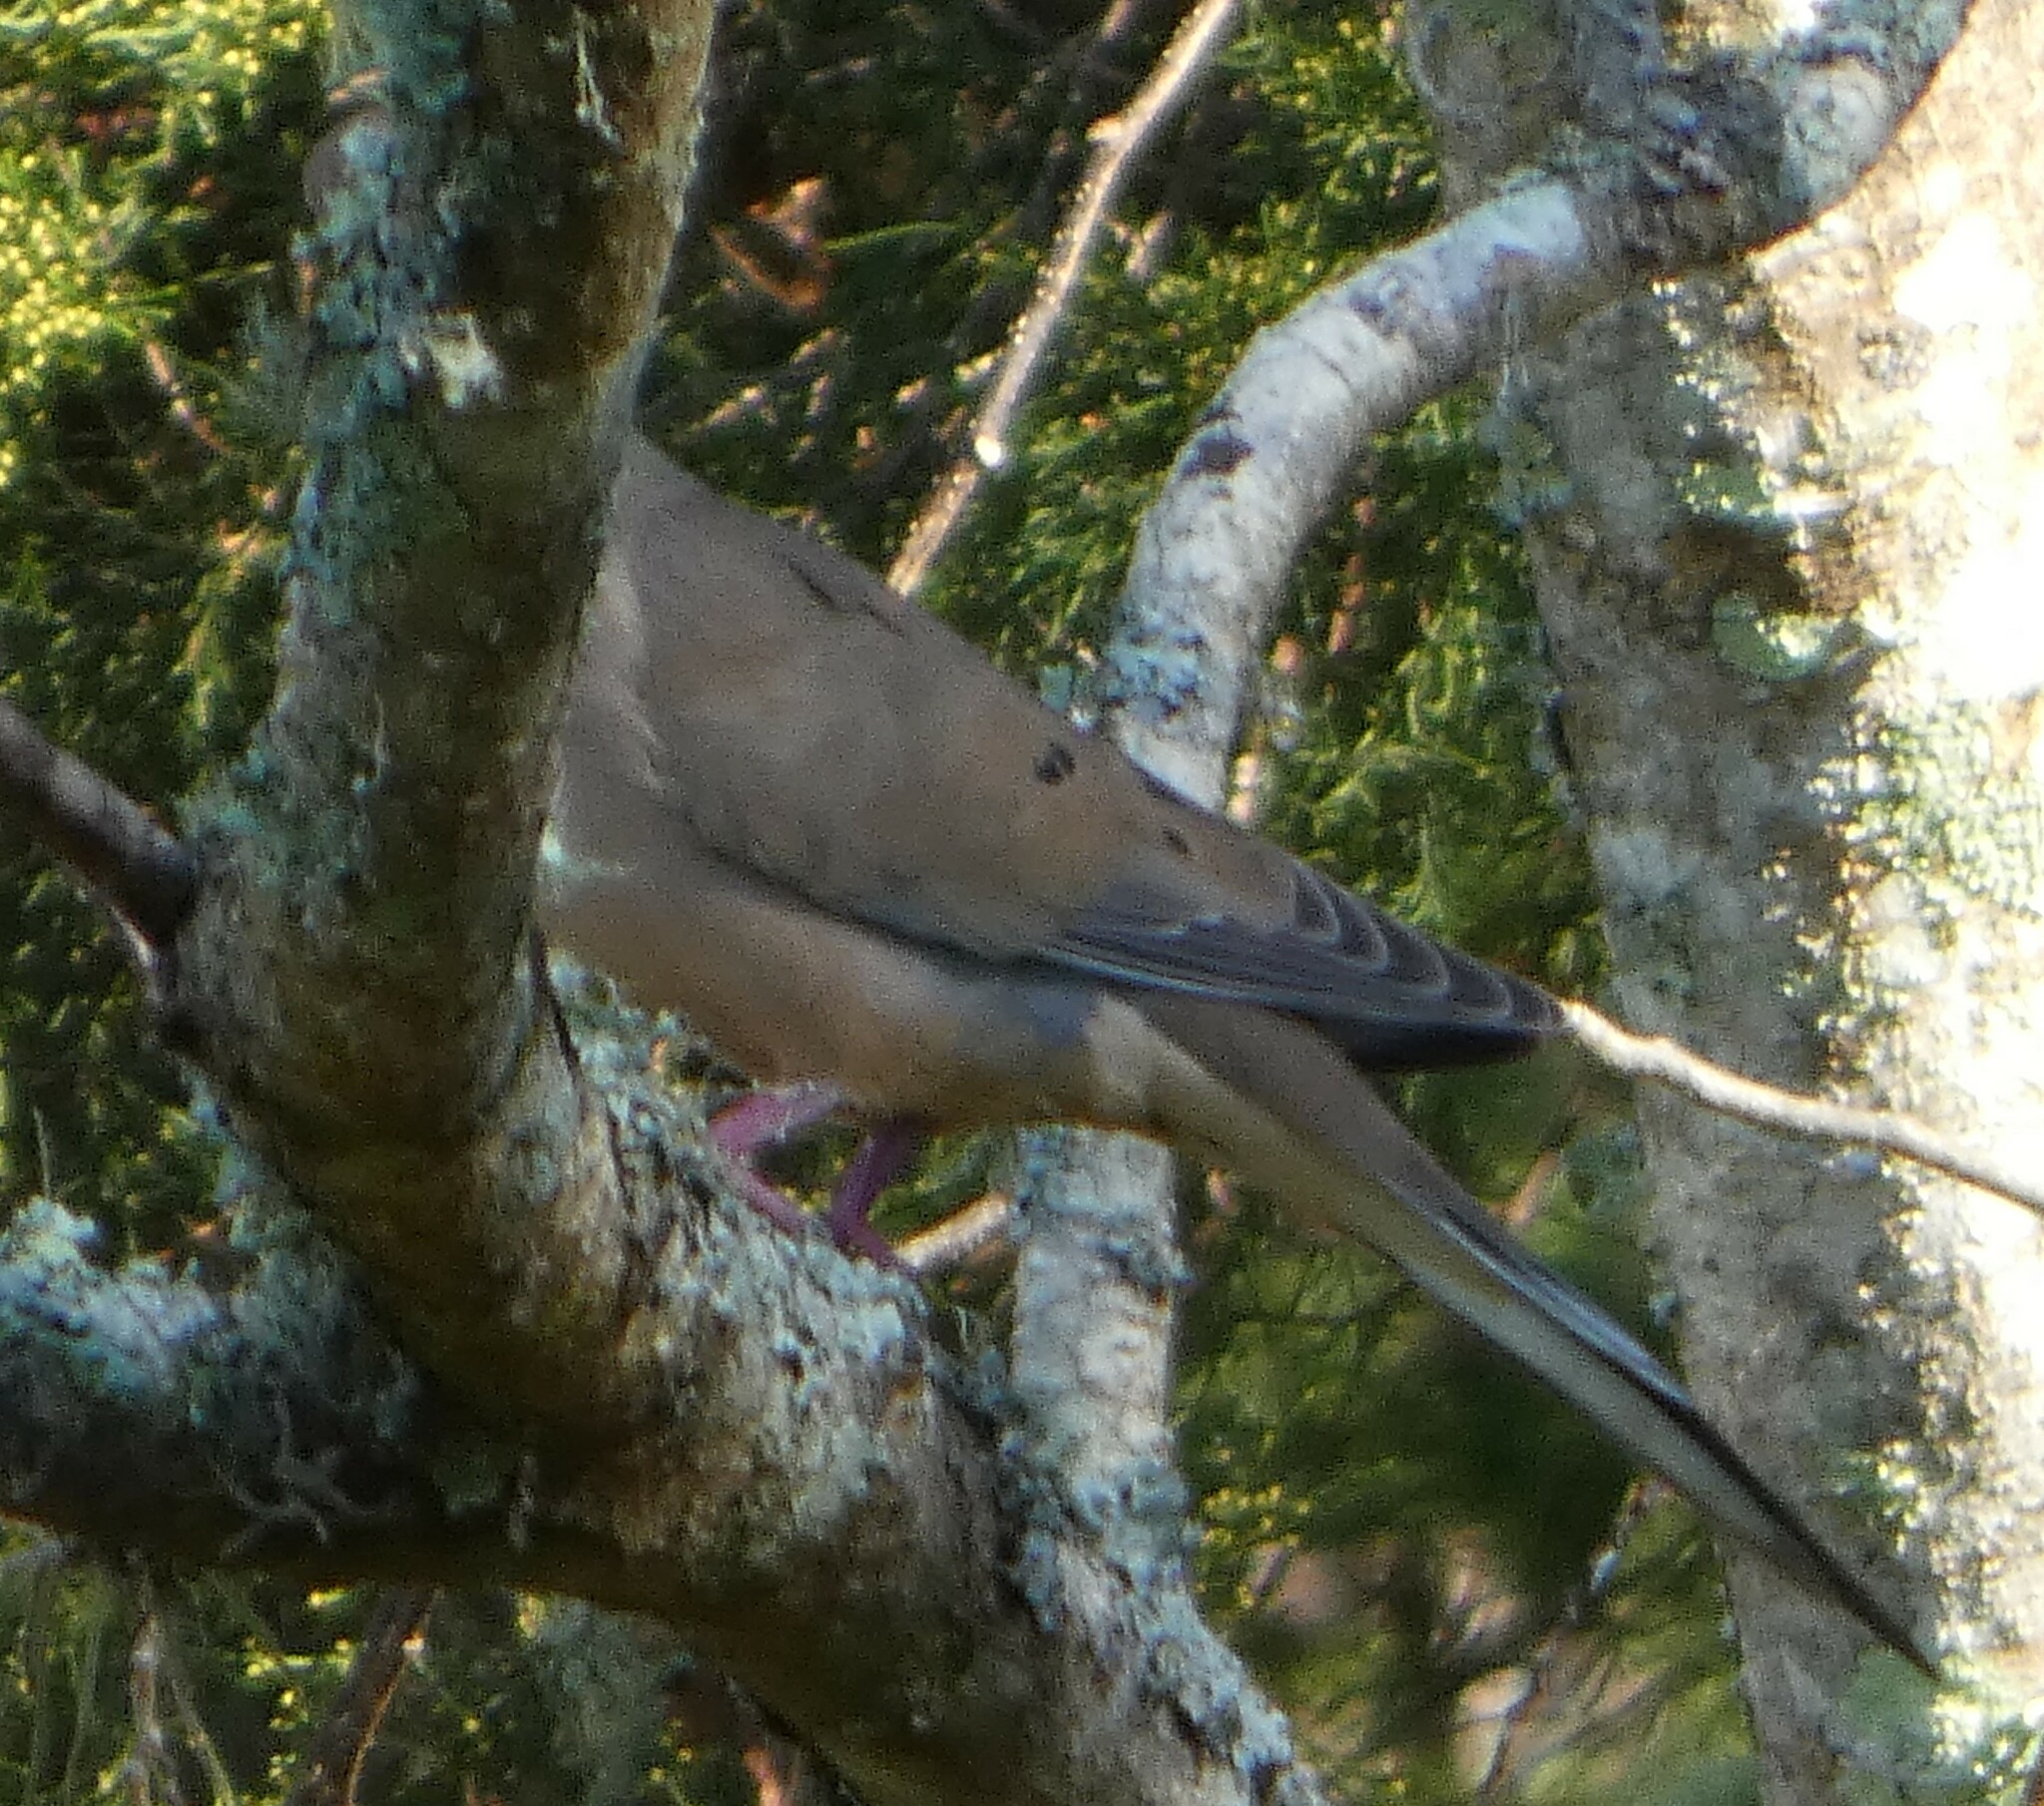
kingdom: Animalia
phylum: Chordata
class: Aves
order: Columbiformes
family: Columbidae
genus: Zenaida
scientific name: Zenaida macroura
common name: Mourning dove
